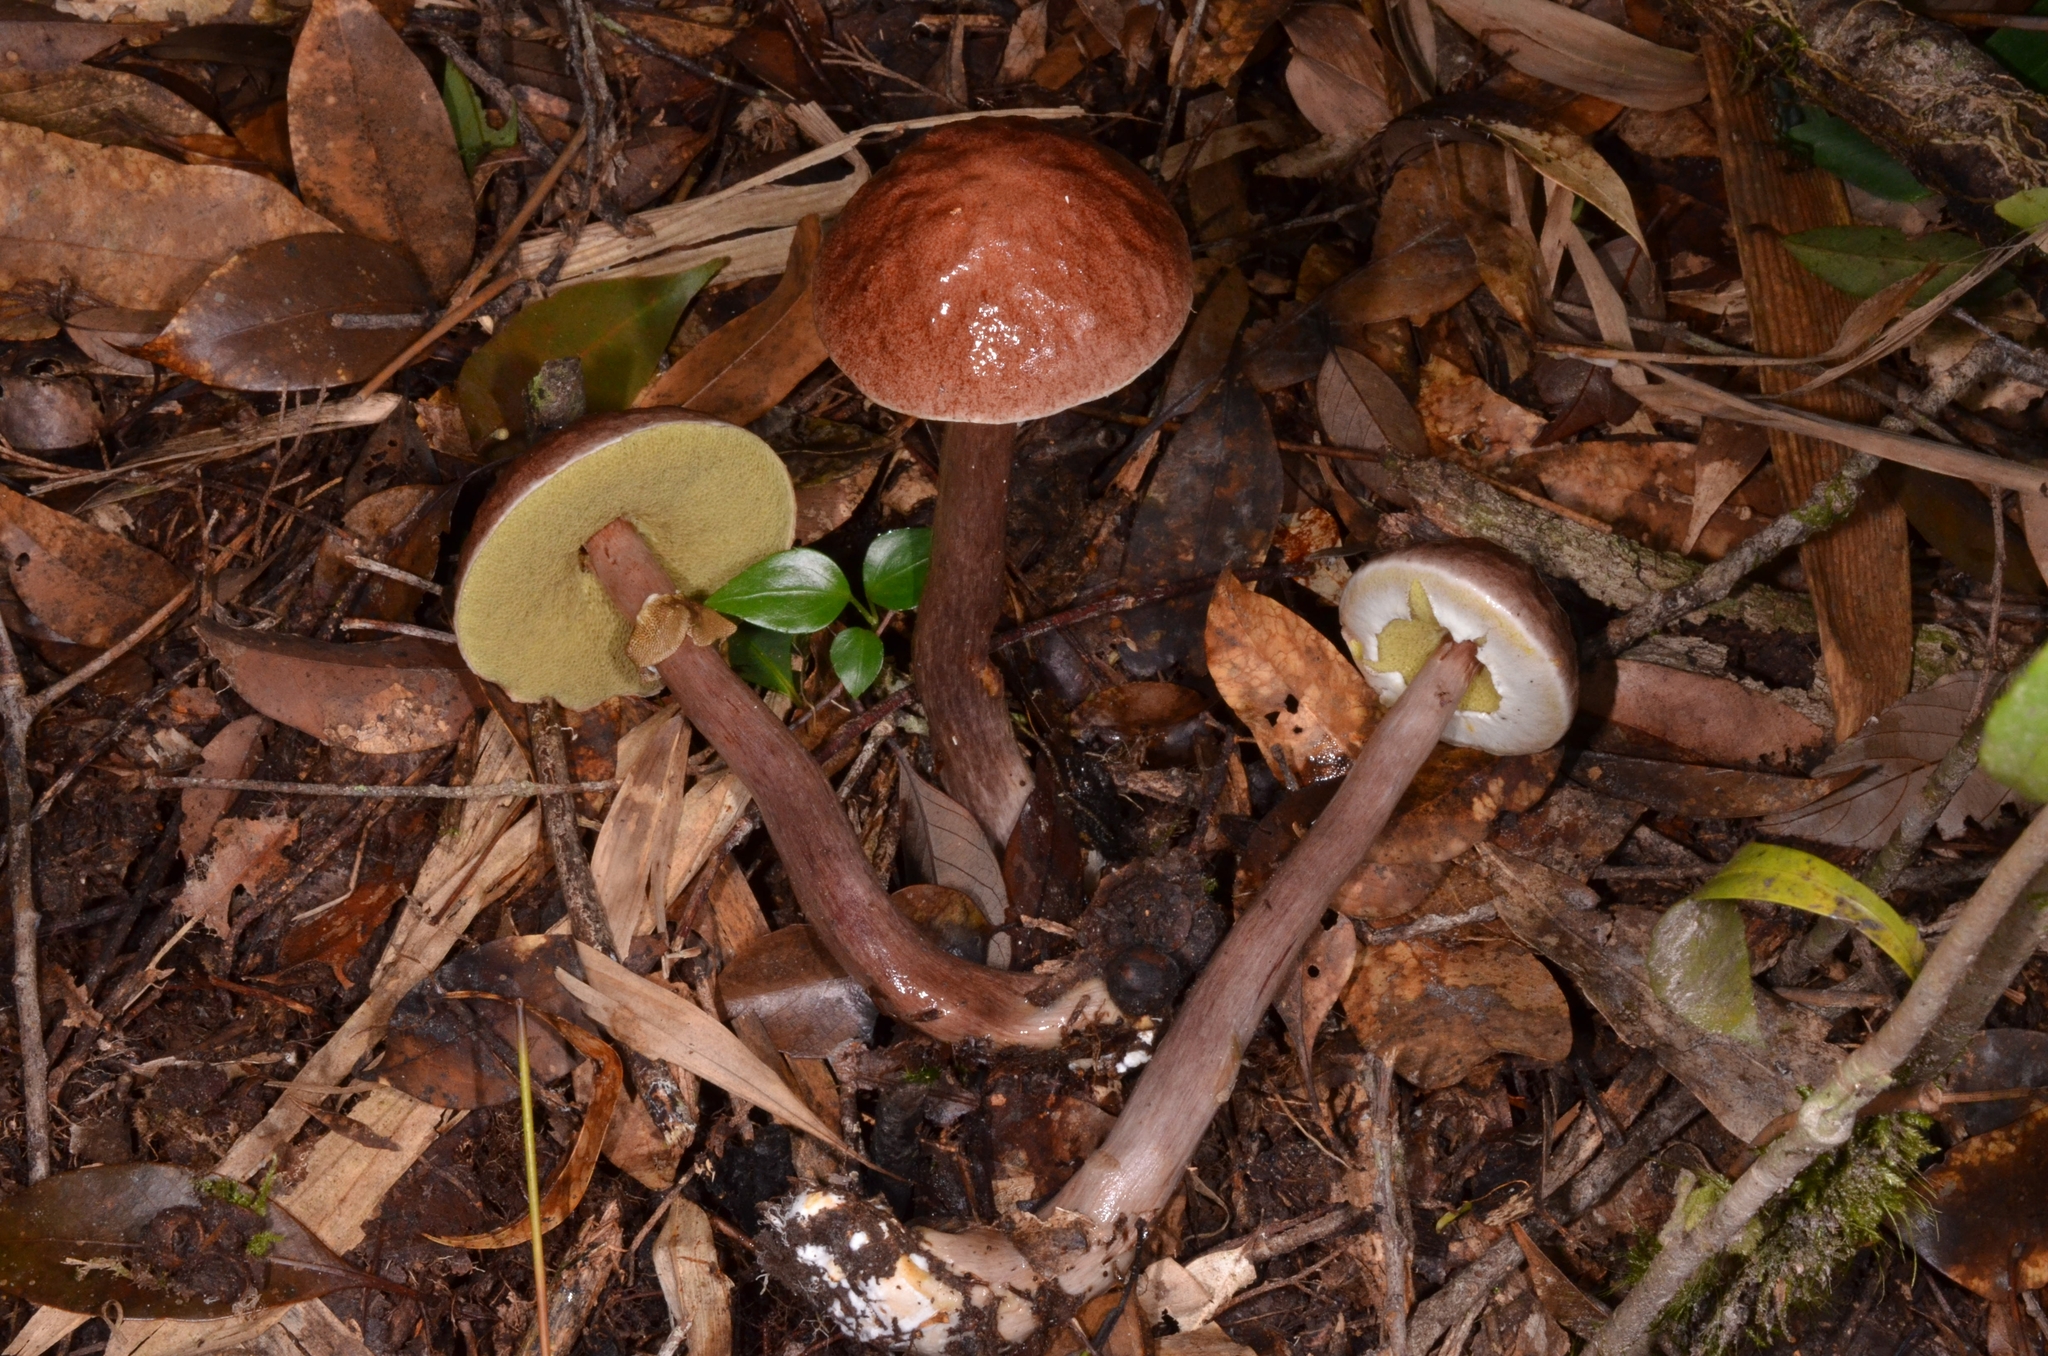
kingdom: Fungi
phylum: Basidiomycota
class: Agaricomycetes
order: Boletales
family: Boletaceae
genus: Aureoboletus
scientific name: Aureoboletus longicollis
